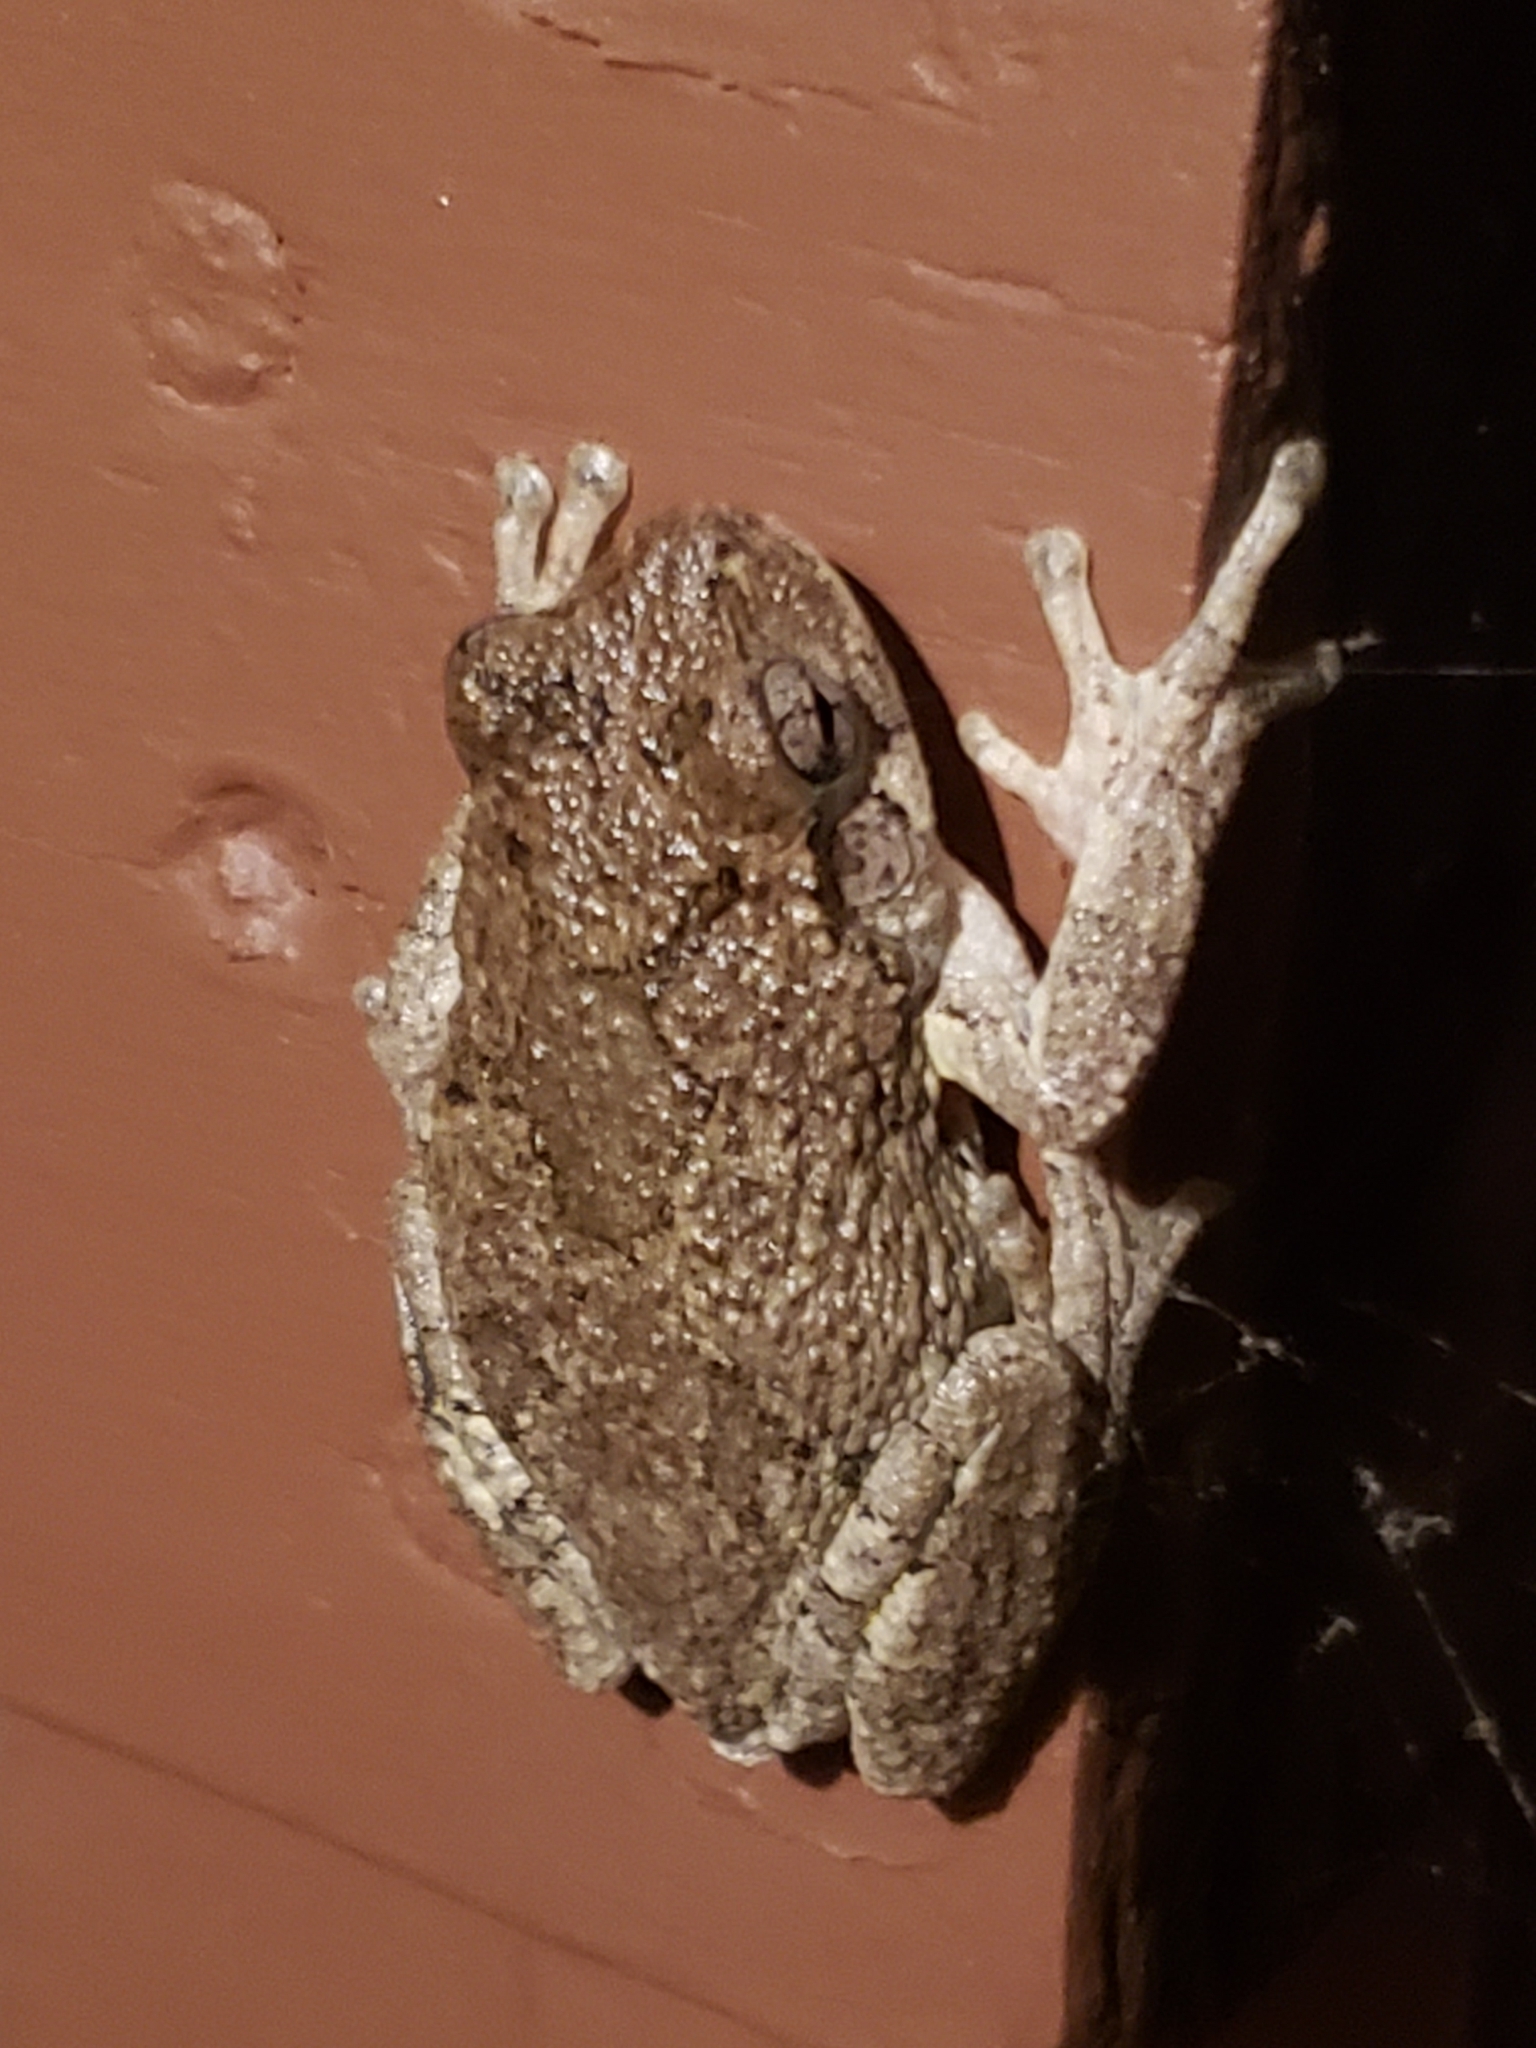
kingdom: Animalia
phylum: Chordata
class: Amphibia
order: Anura
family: Hylidae
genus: Hyla
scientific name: Hyla
